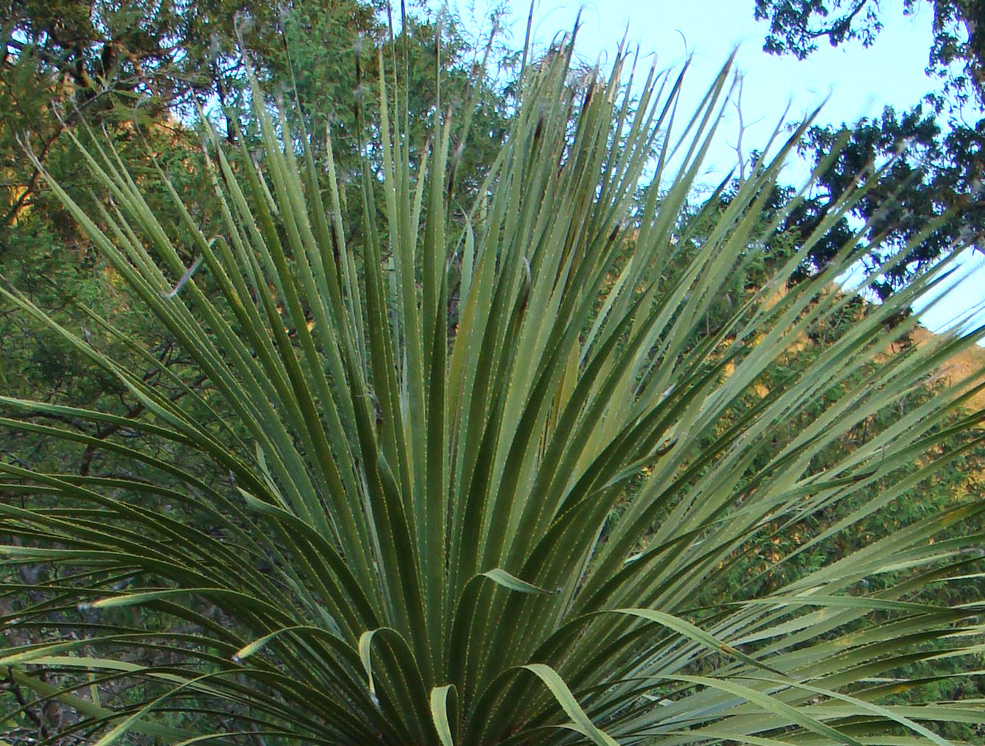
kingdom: Plantae
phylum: Tracheophyta
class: Liliopsida
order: Asparagales
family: Asparagaceae
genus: Dasylirion
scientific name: Dasylirion serratifolium
